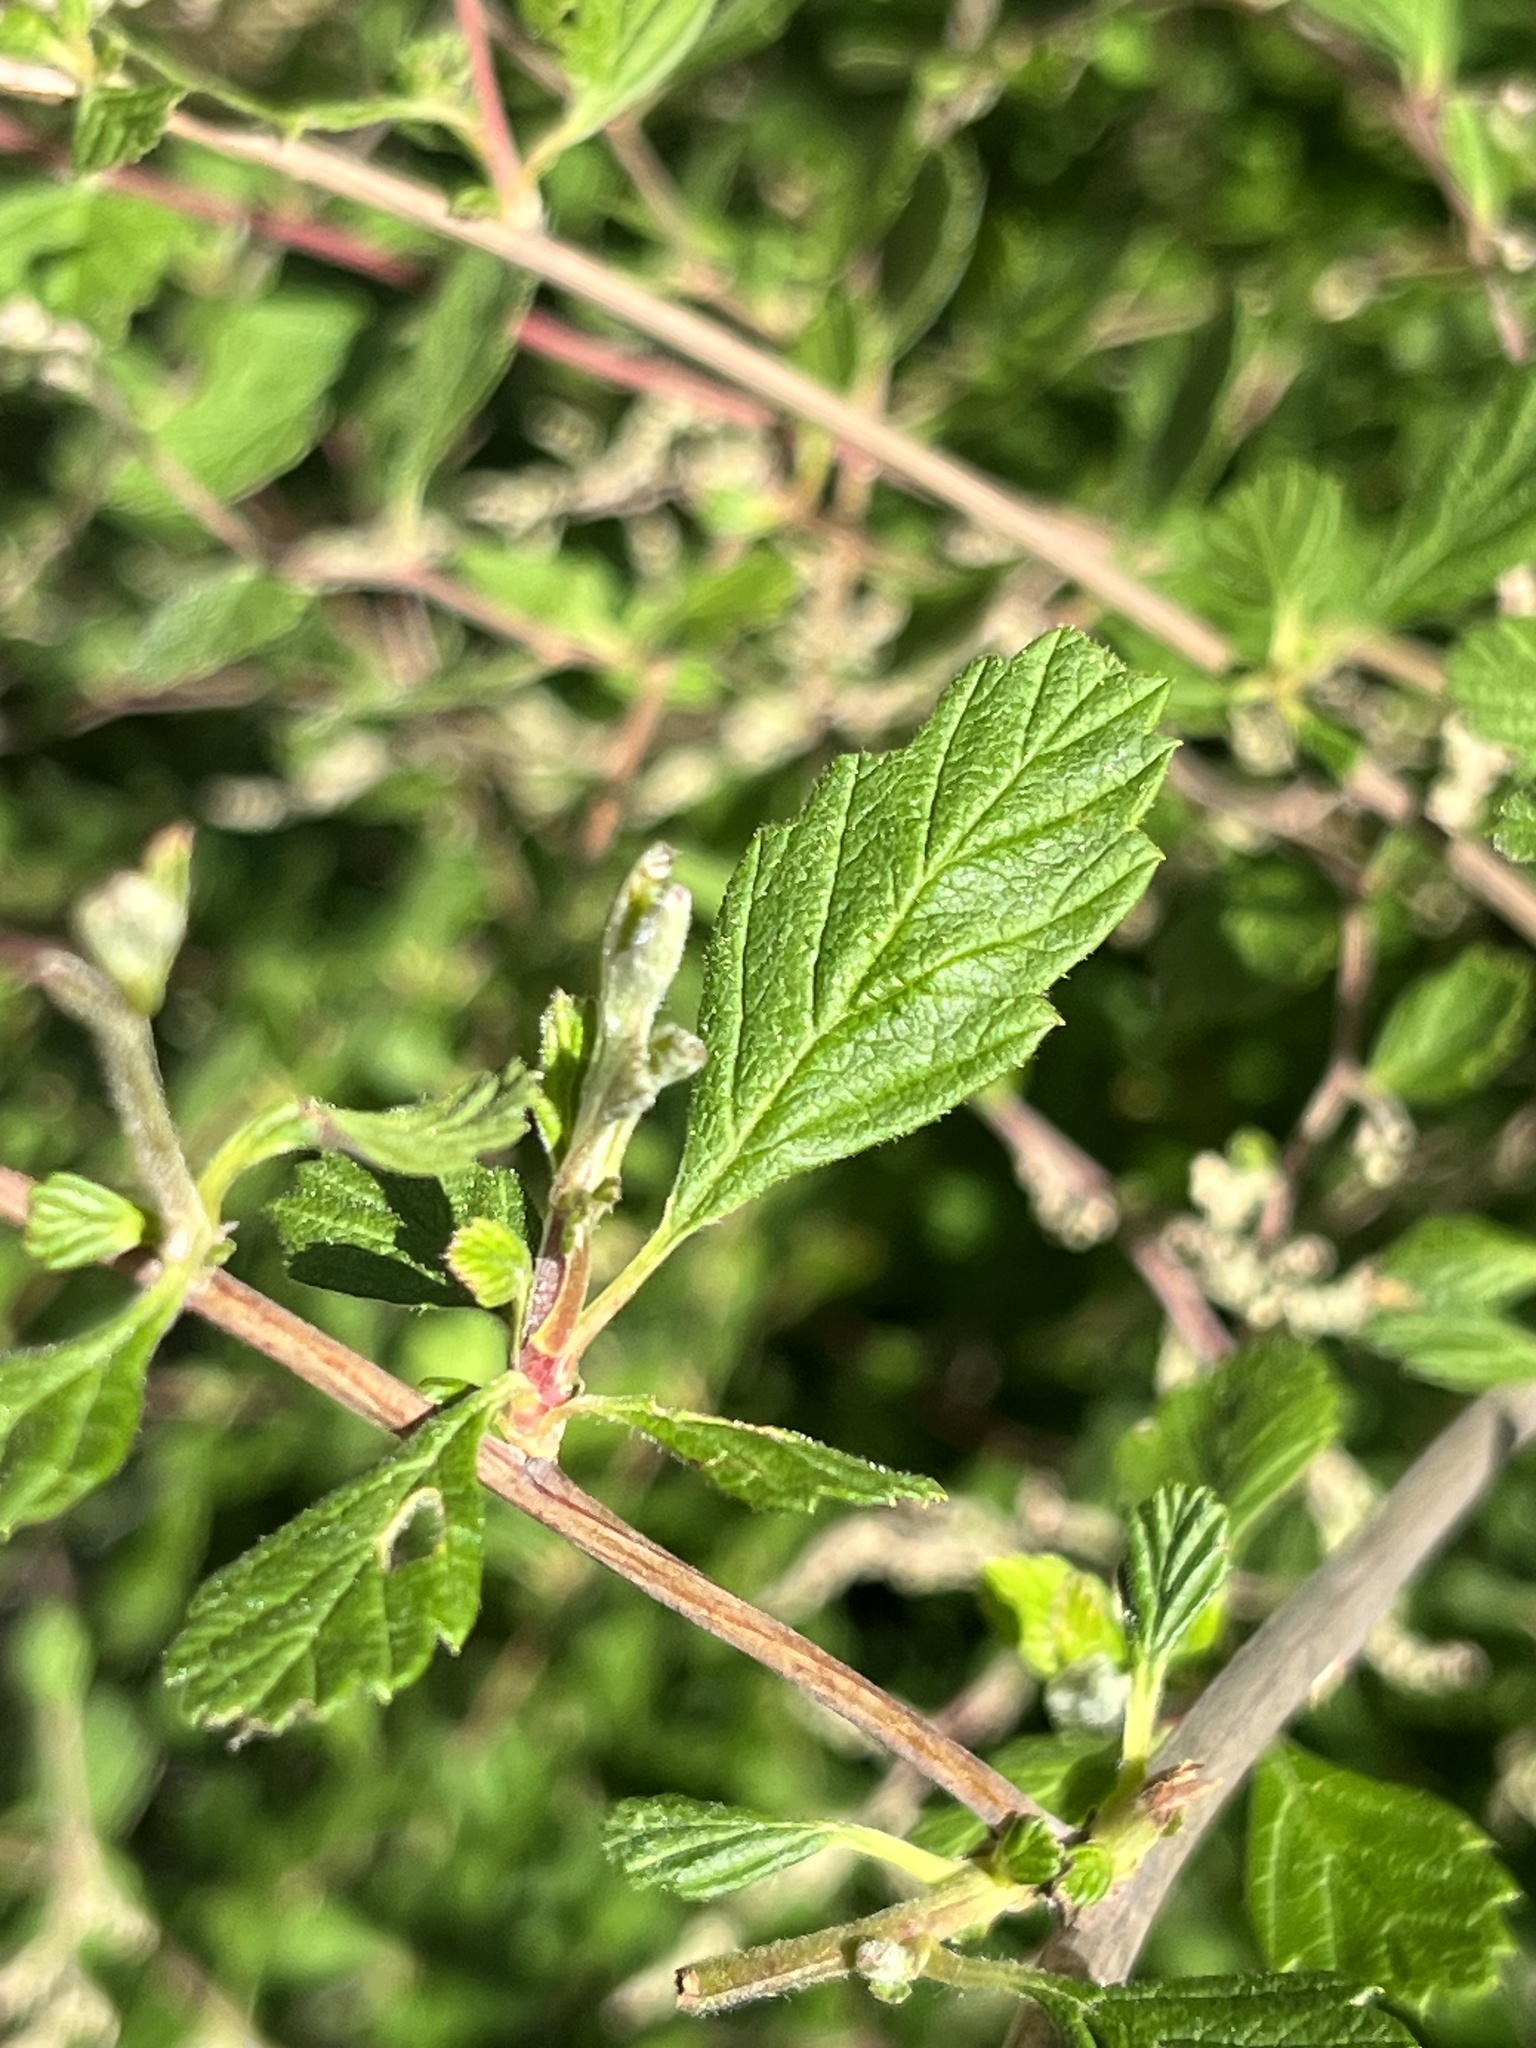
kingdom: Plantae
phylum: Tracheophyta
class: Magnoliopsida
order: Rosales
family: Rosaceae
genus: Holodiscus
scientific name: Holodiscus discolor
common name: Oceanspray
